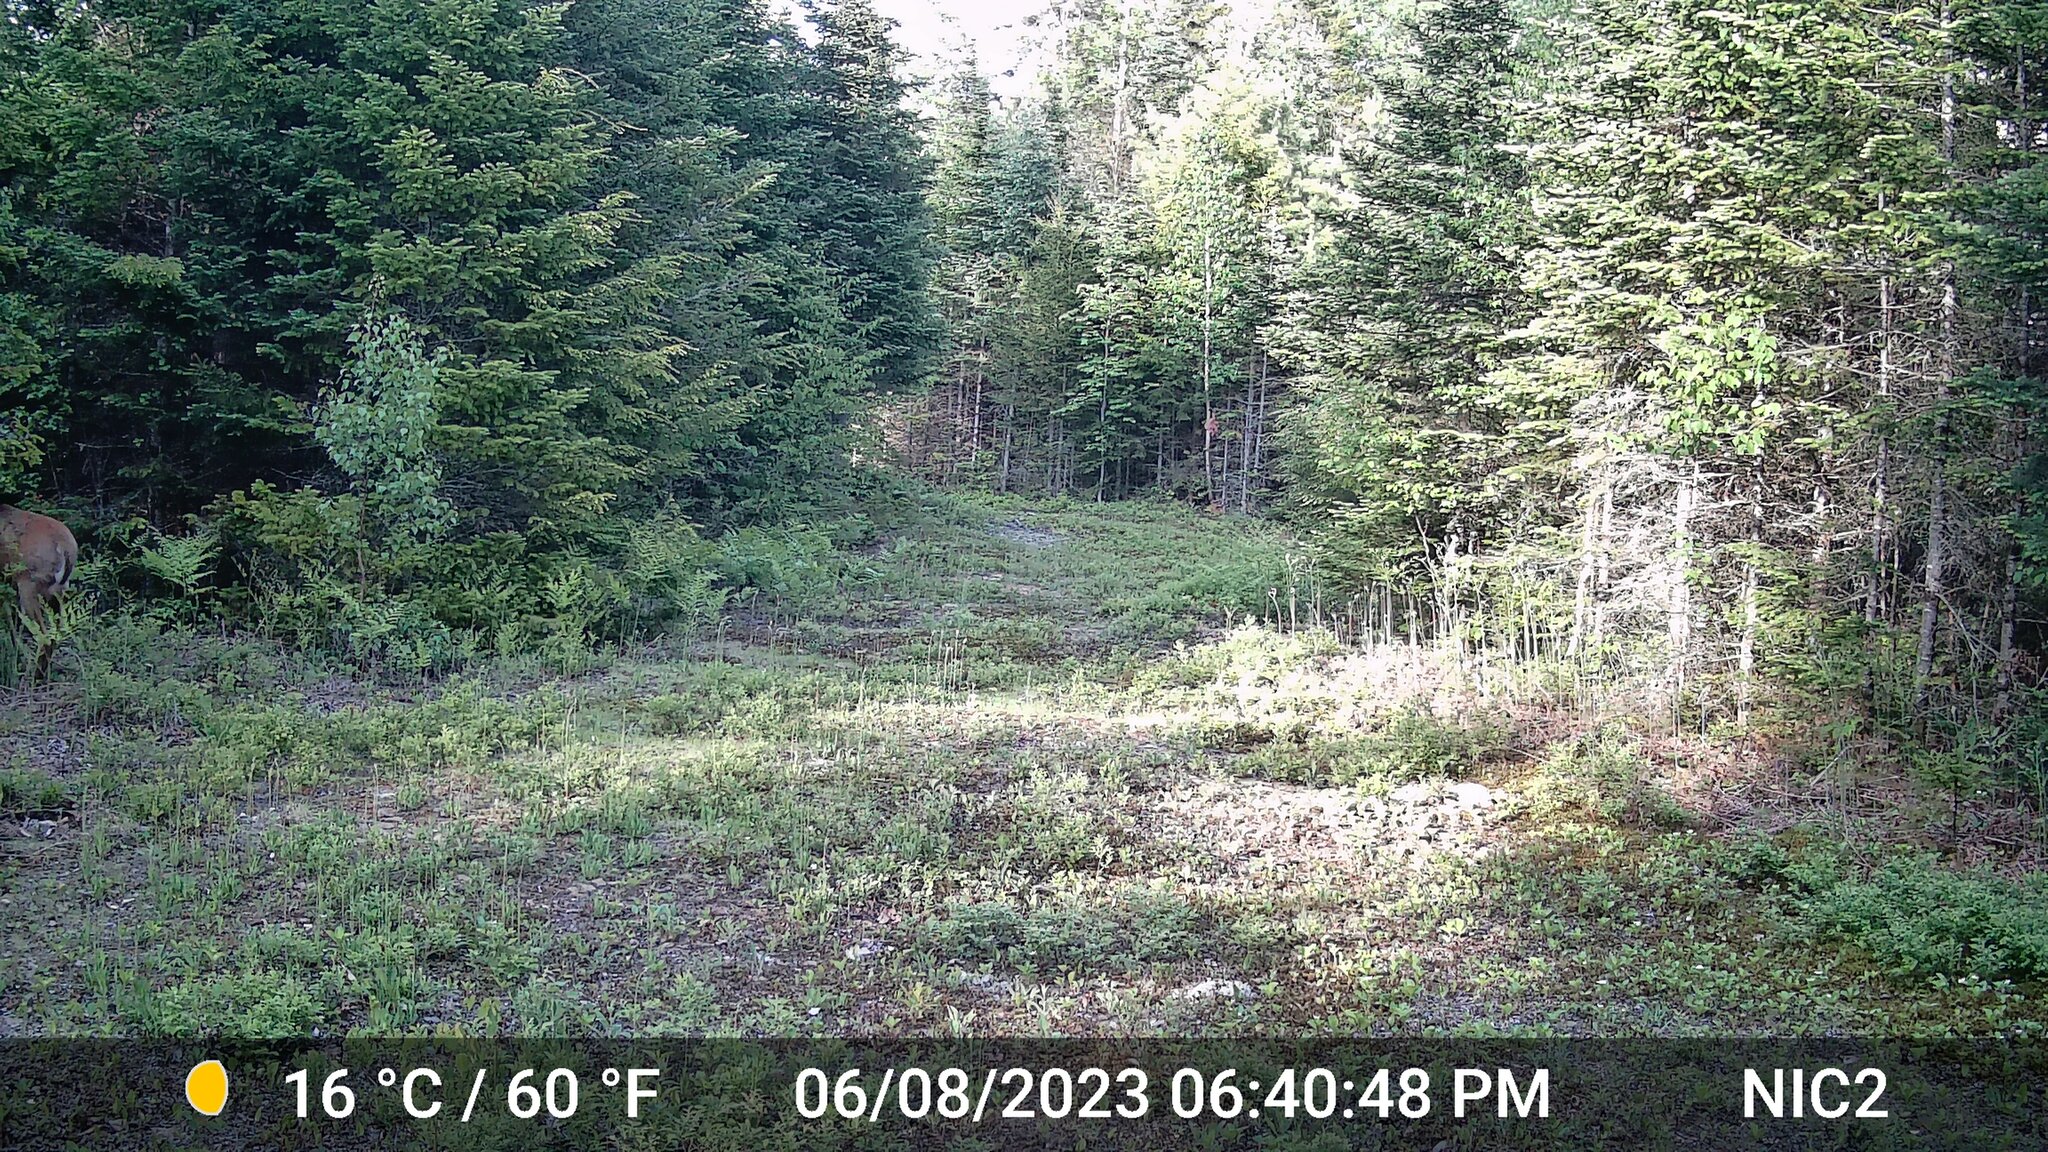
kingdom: Animalia
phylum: Chordata
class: Mammalia
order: Artiodactyla
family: Cervidae
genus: Odocoileus
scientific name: Odocoileus virginianus
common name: White-tailed deer
